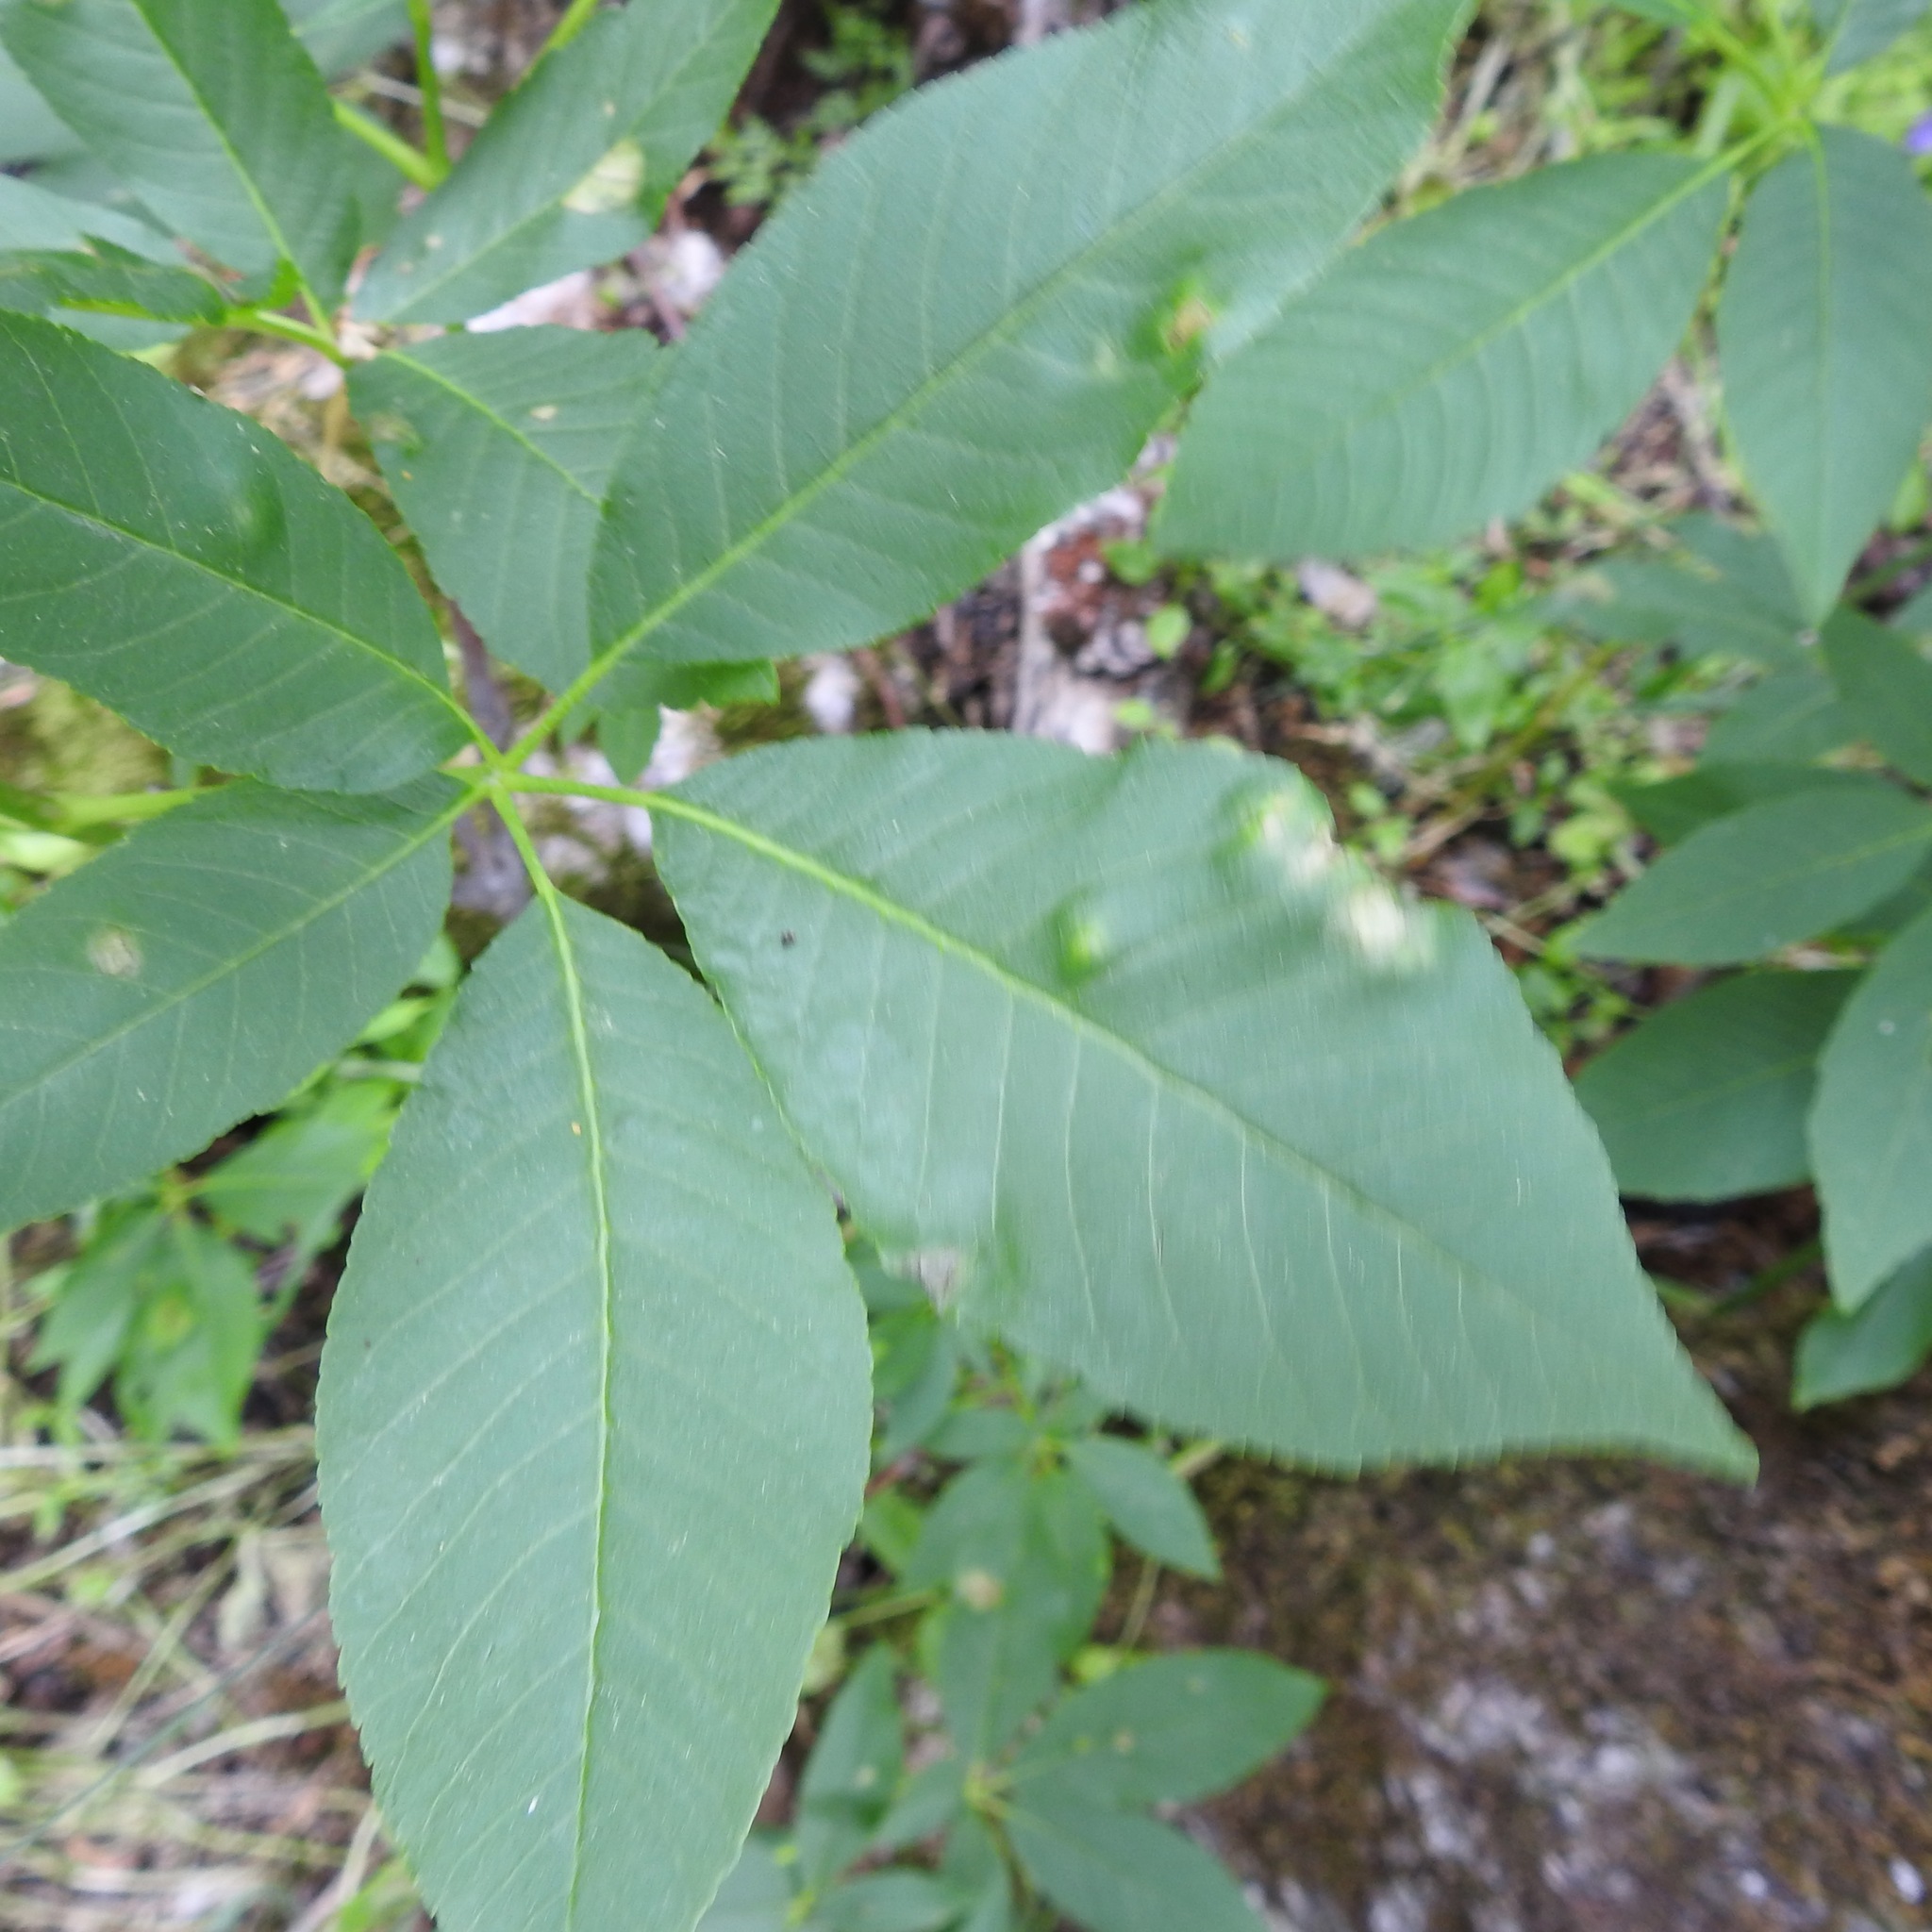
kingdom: Plantae
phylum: Tracheophyta
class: Magnoliopsida
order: Sapindales
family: Sapindaceae
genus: Aesculus
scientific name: Aesculus californica
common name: California buckeye
